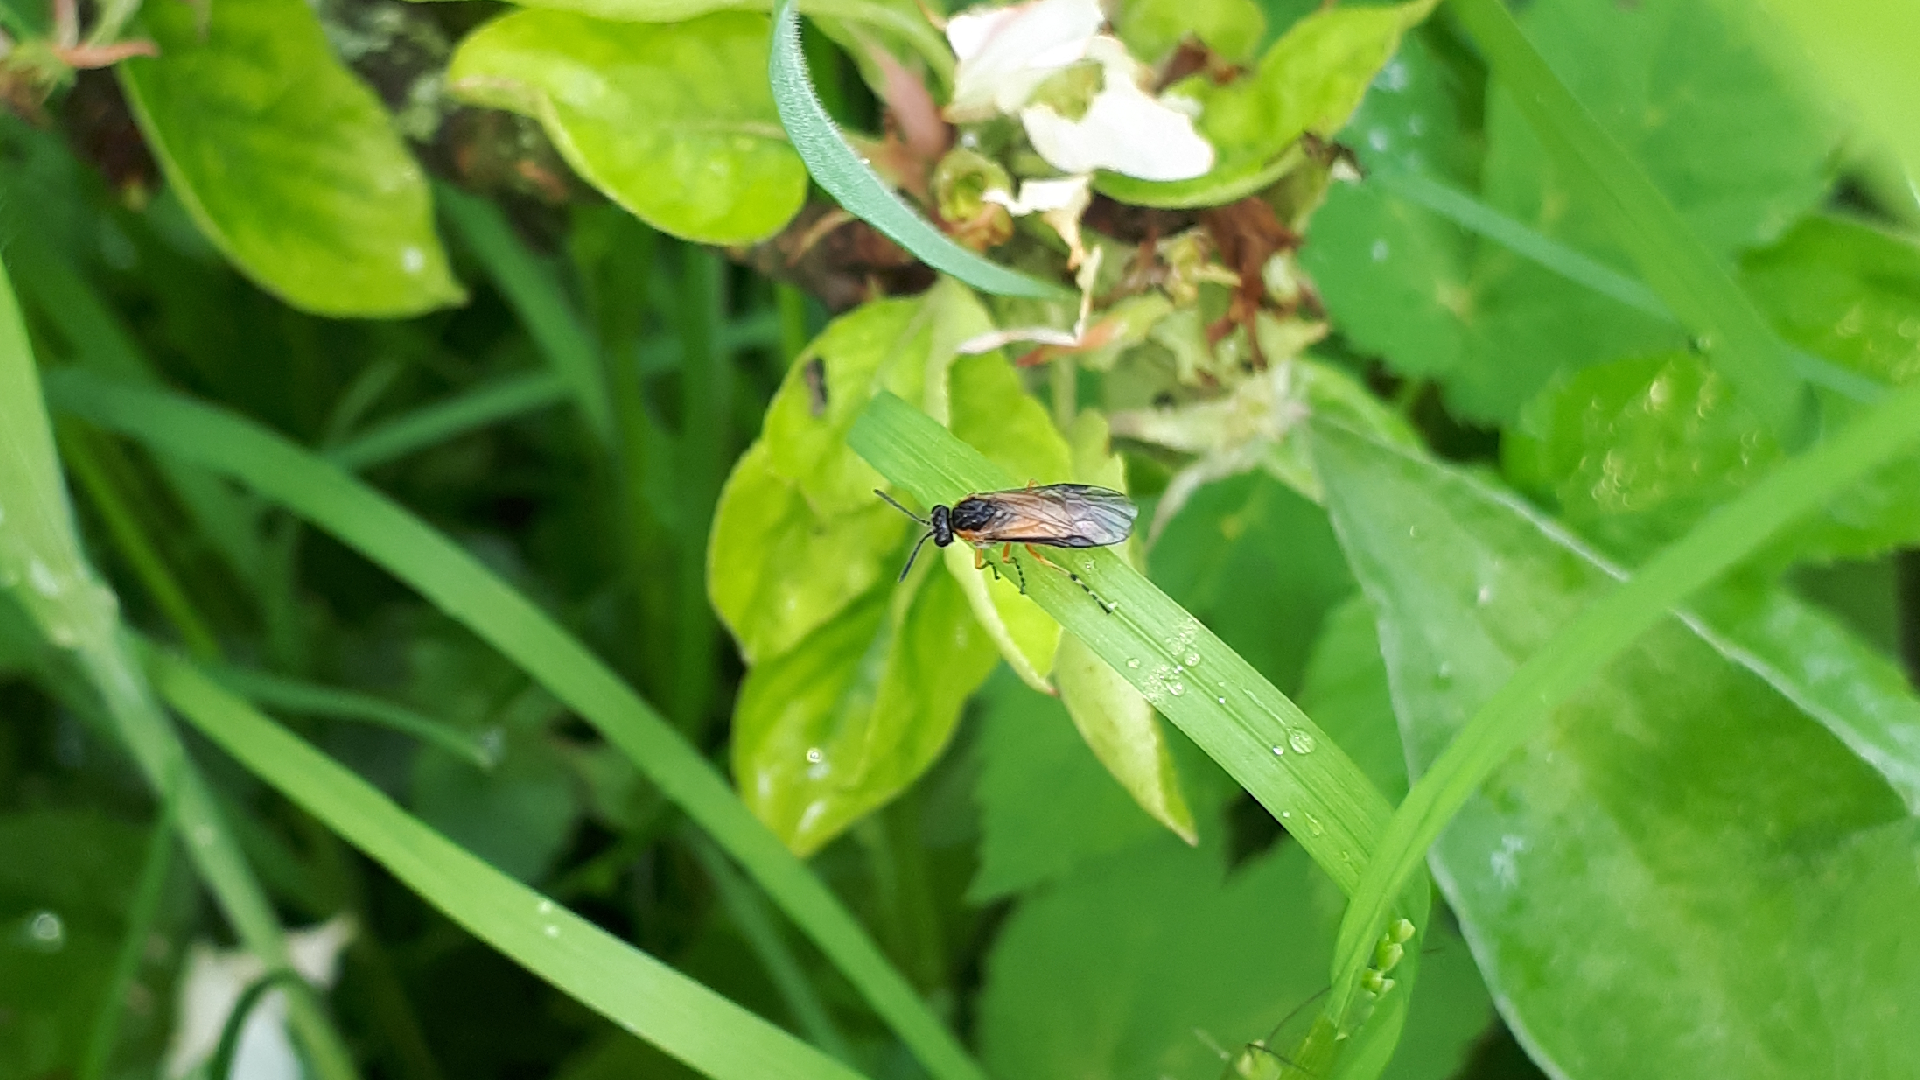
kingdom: Animalia
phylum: Arthropoda
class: Insecta
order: Hymenoptera
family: Argidae
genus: Arge
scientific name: Arge ochropus
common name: Argid sawfly
